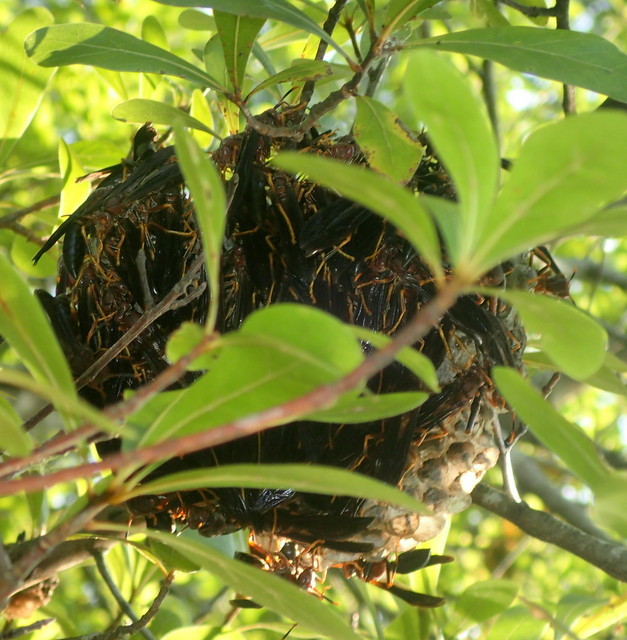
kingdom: Animalia
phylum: Arthropoda
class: Insecta
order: Hymenoptera
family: Eumenidae
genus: Polistes
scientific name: Polistes annularis
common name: Ringed paper wasp
